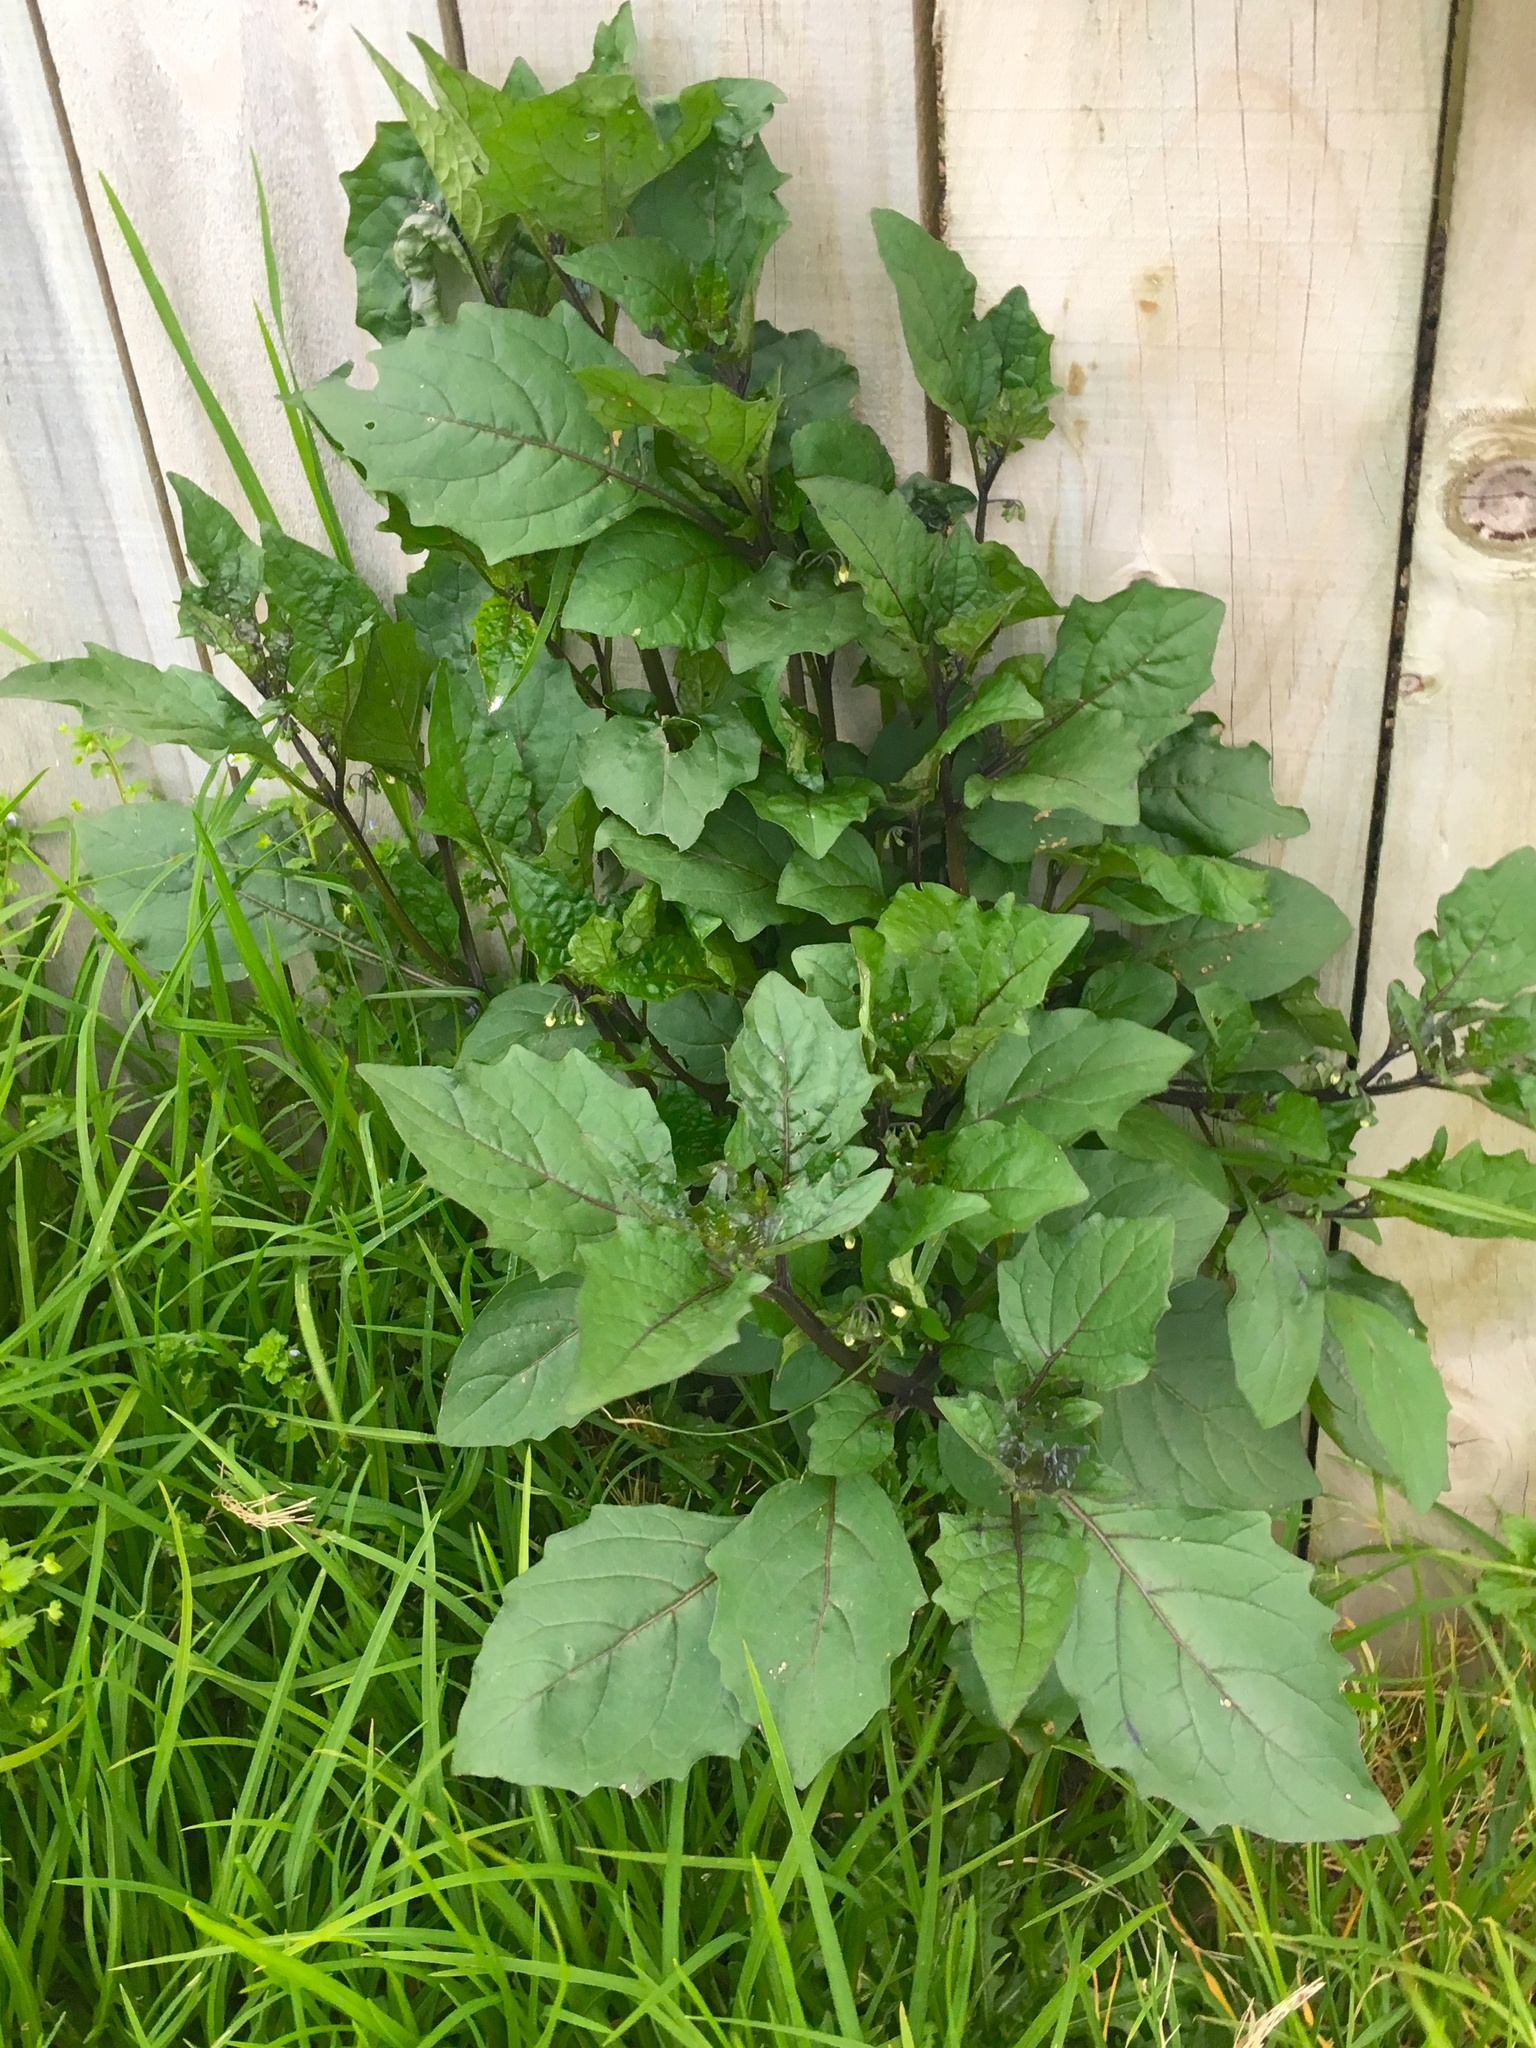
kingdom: Plantae
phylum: Tracheophyta
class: Magnoliopsida
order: Solanales
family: Solanaceae
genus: Solanum
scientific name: Solanum nigrum
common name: Black nightshade
